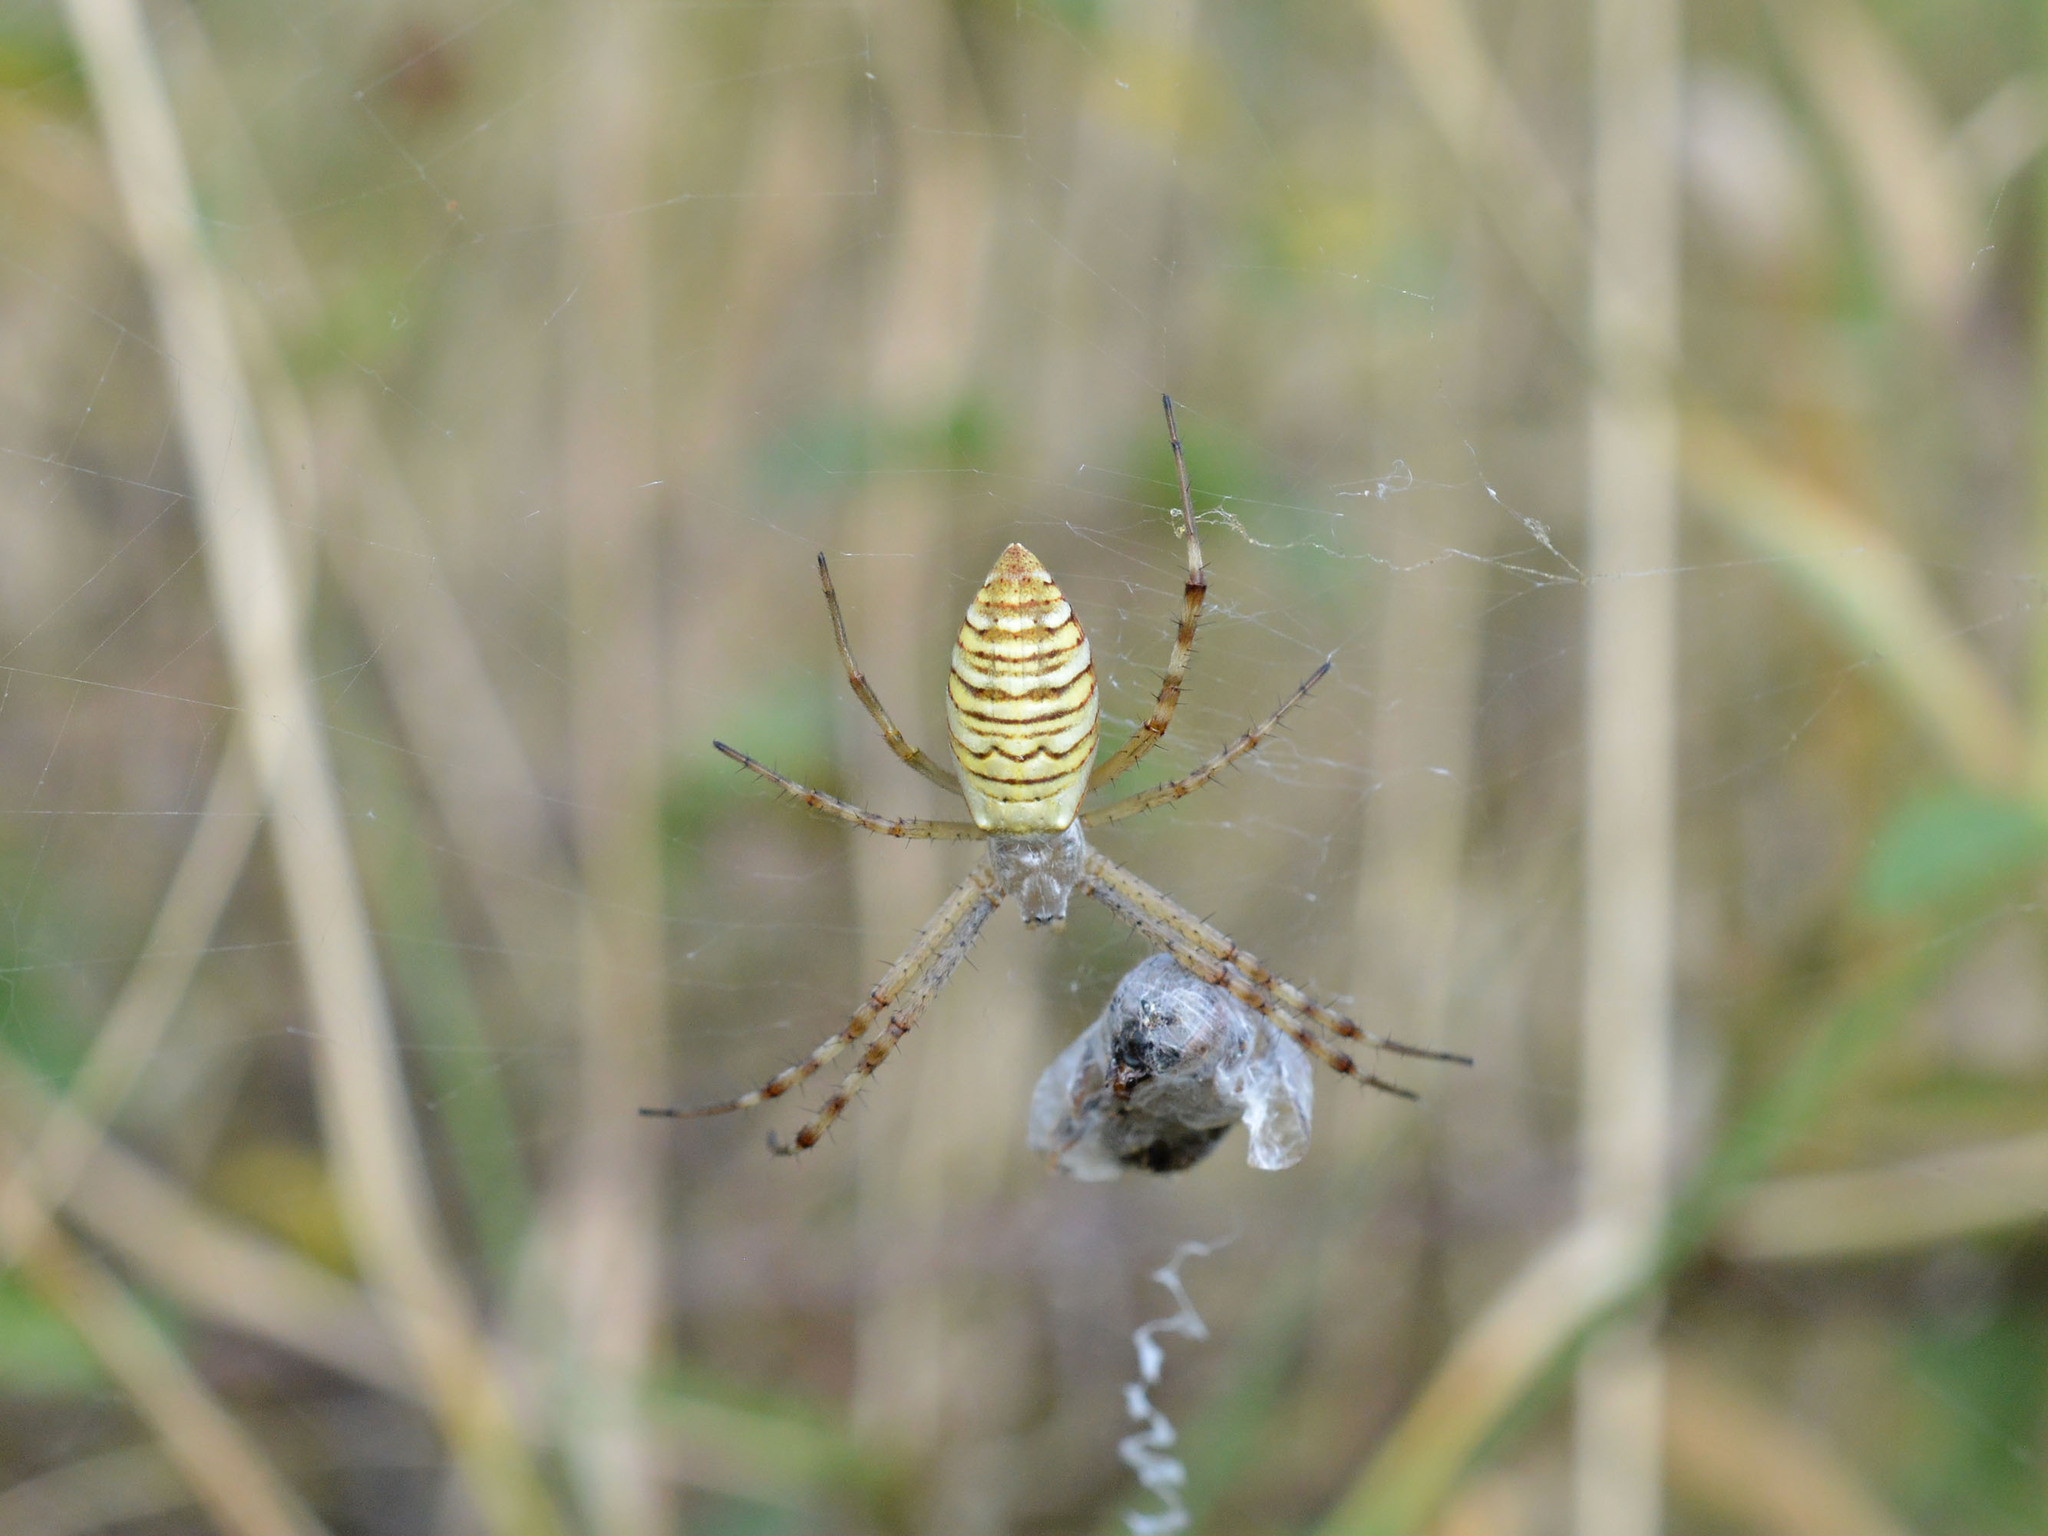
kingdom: Animalia
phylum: Arthropoda
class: Arachnida
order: Araneae
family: Araneidae
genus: Argiope
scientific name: Argiope bruennichi
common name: Wasp spider
